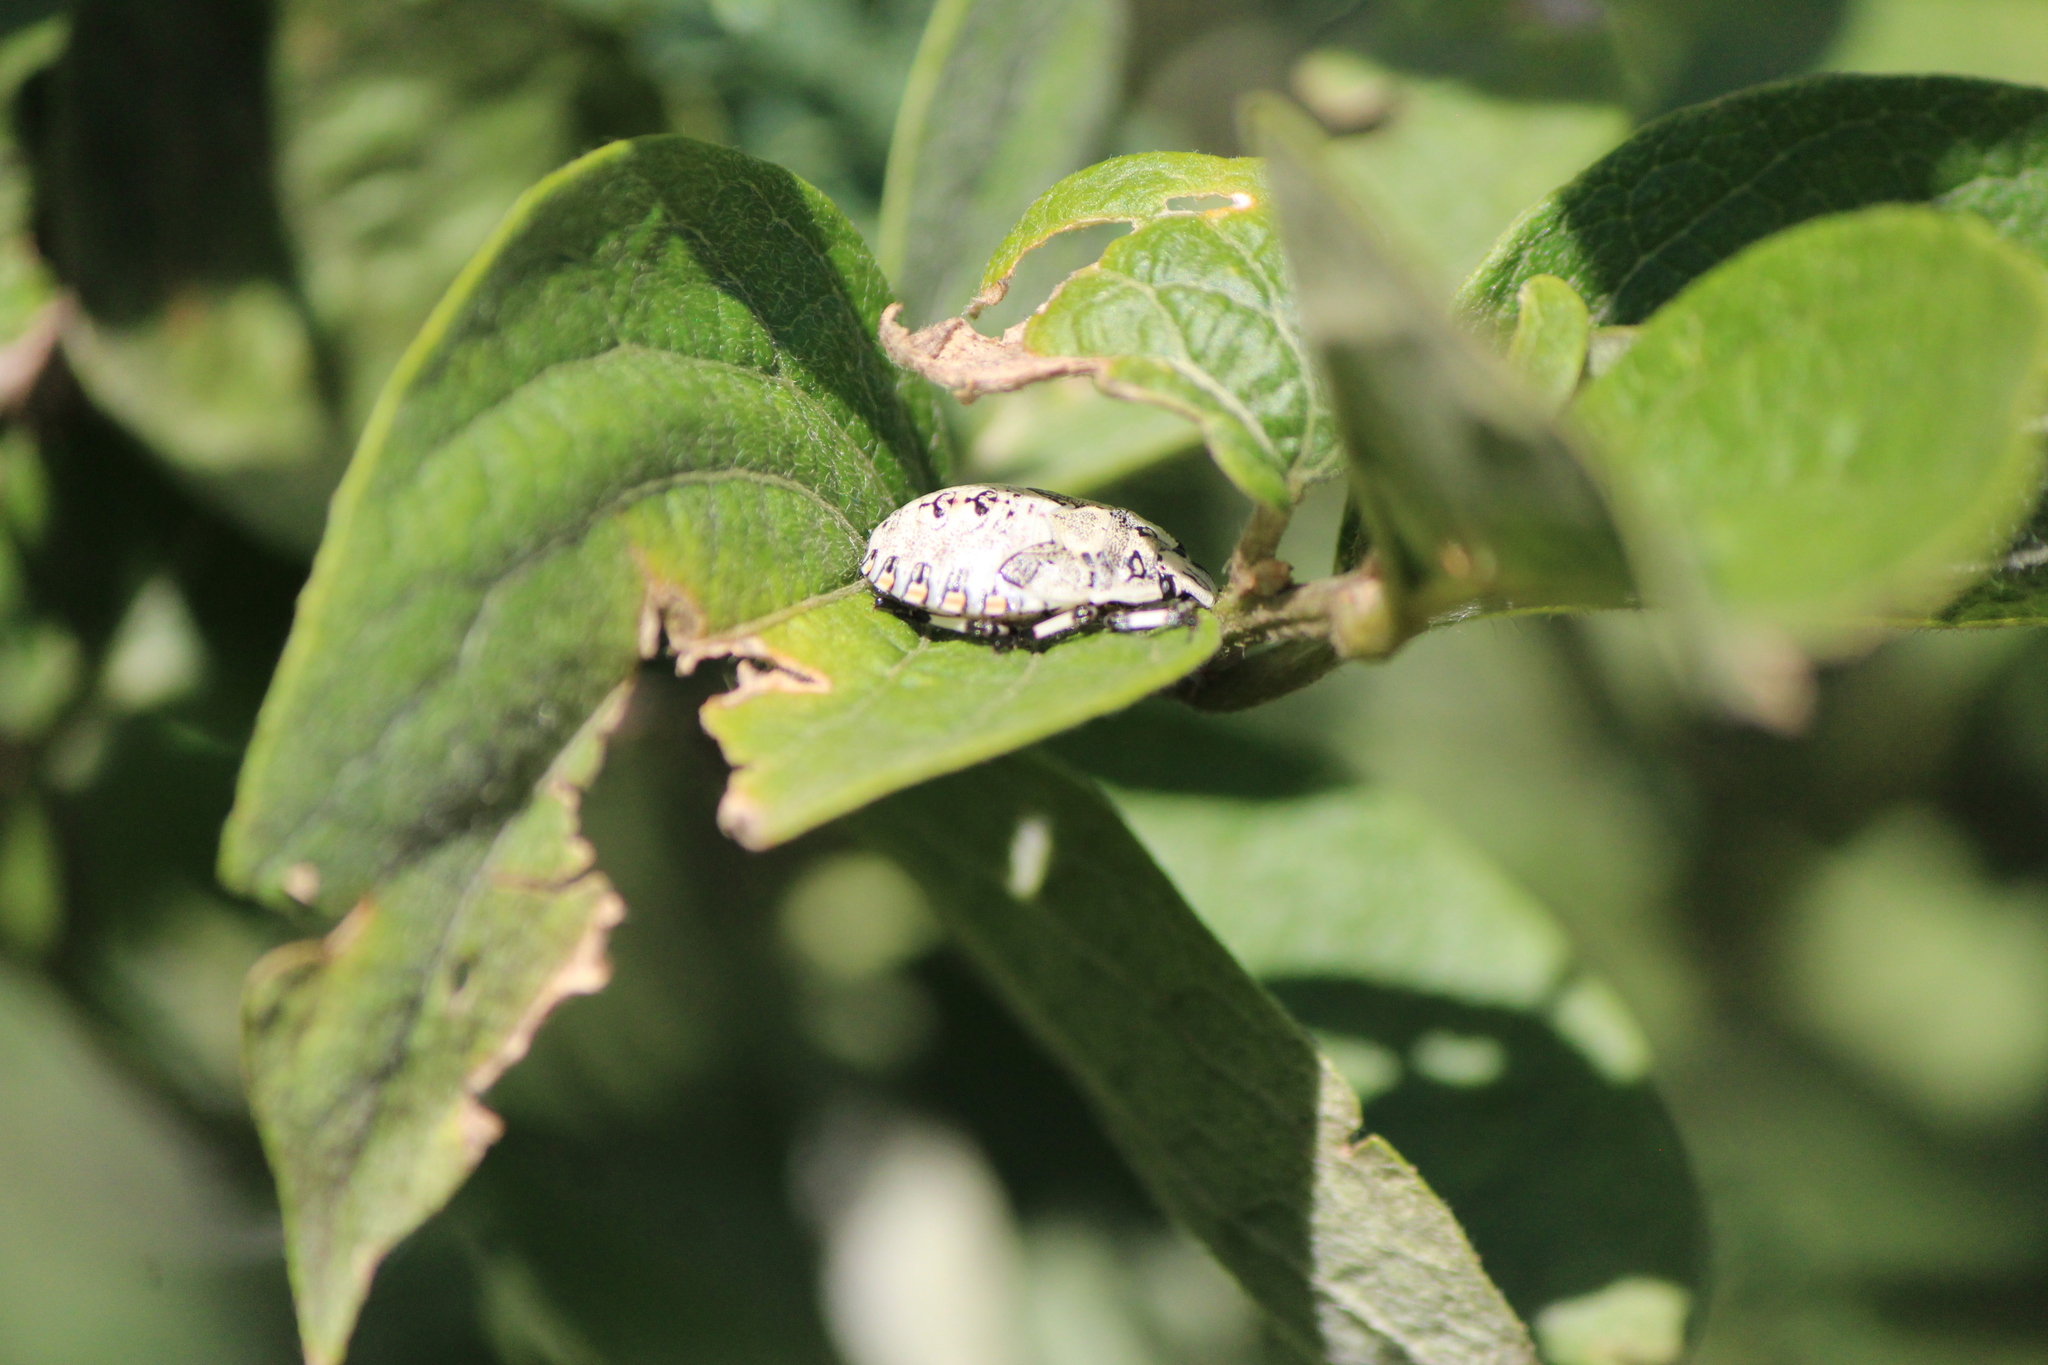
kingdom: Animalia
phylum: Arthropoda
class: Insecta
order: Hemiptera
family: Pentatomidae
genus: Apateticus
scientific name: Apateticus lineolatus
